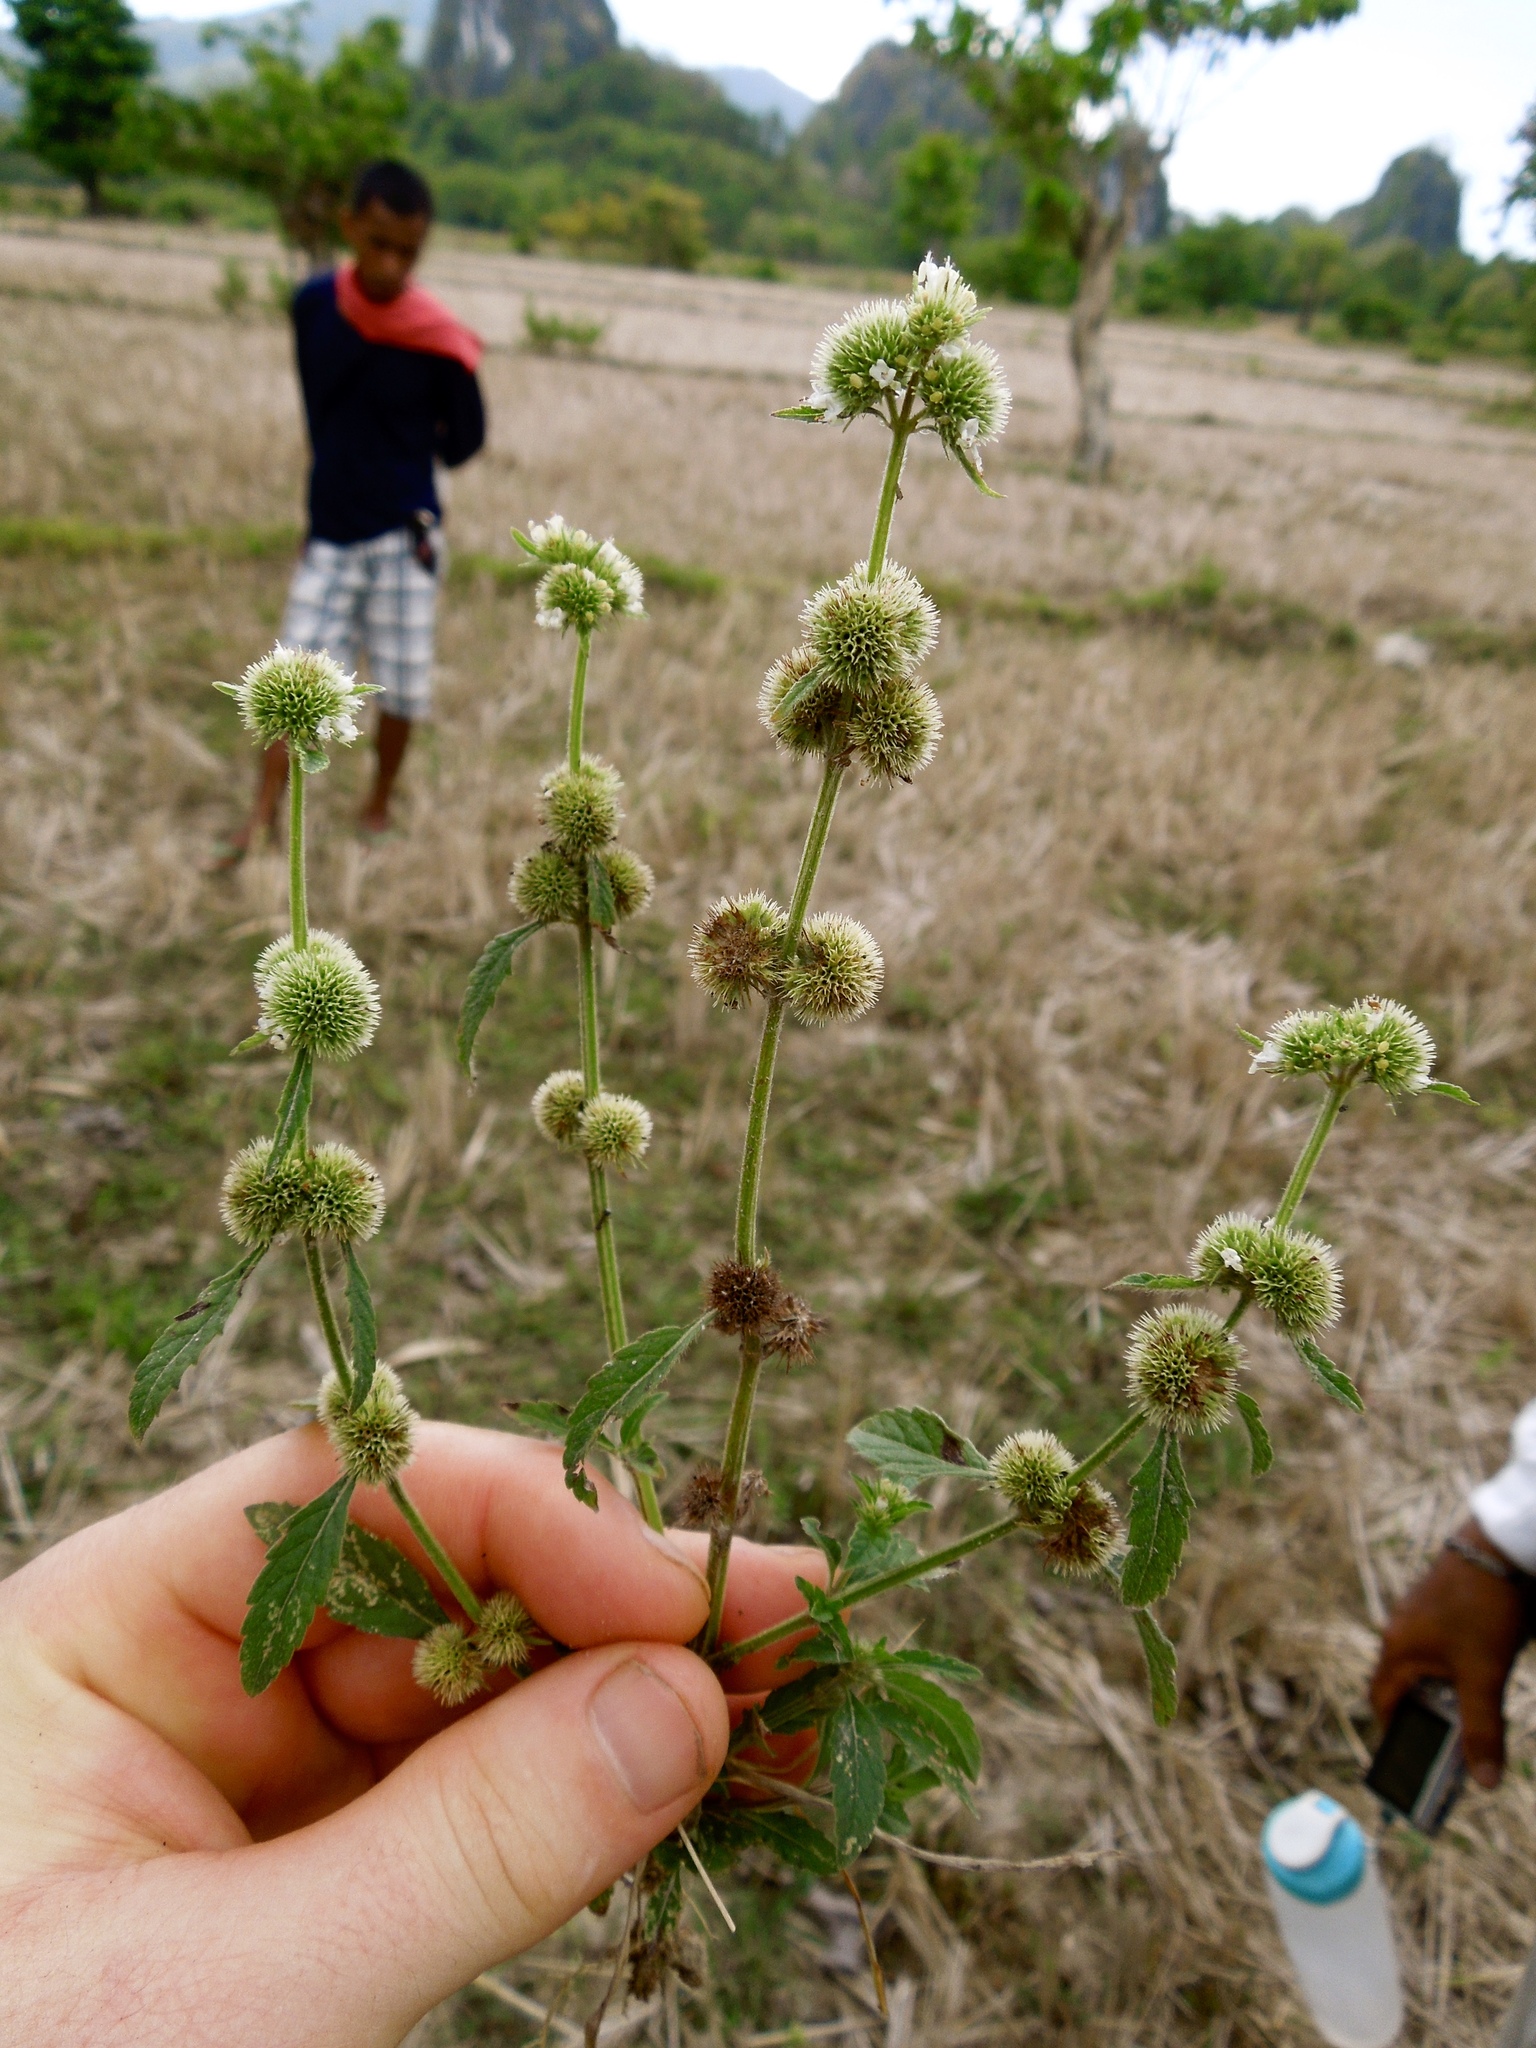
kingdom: Plantae
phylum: Tracheophyta
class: Magnoliopsida
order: Lamiales
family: Lamiaceae
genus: Hyptis
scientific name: Hyptis brevipes
